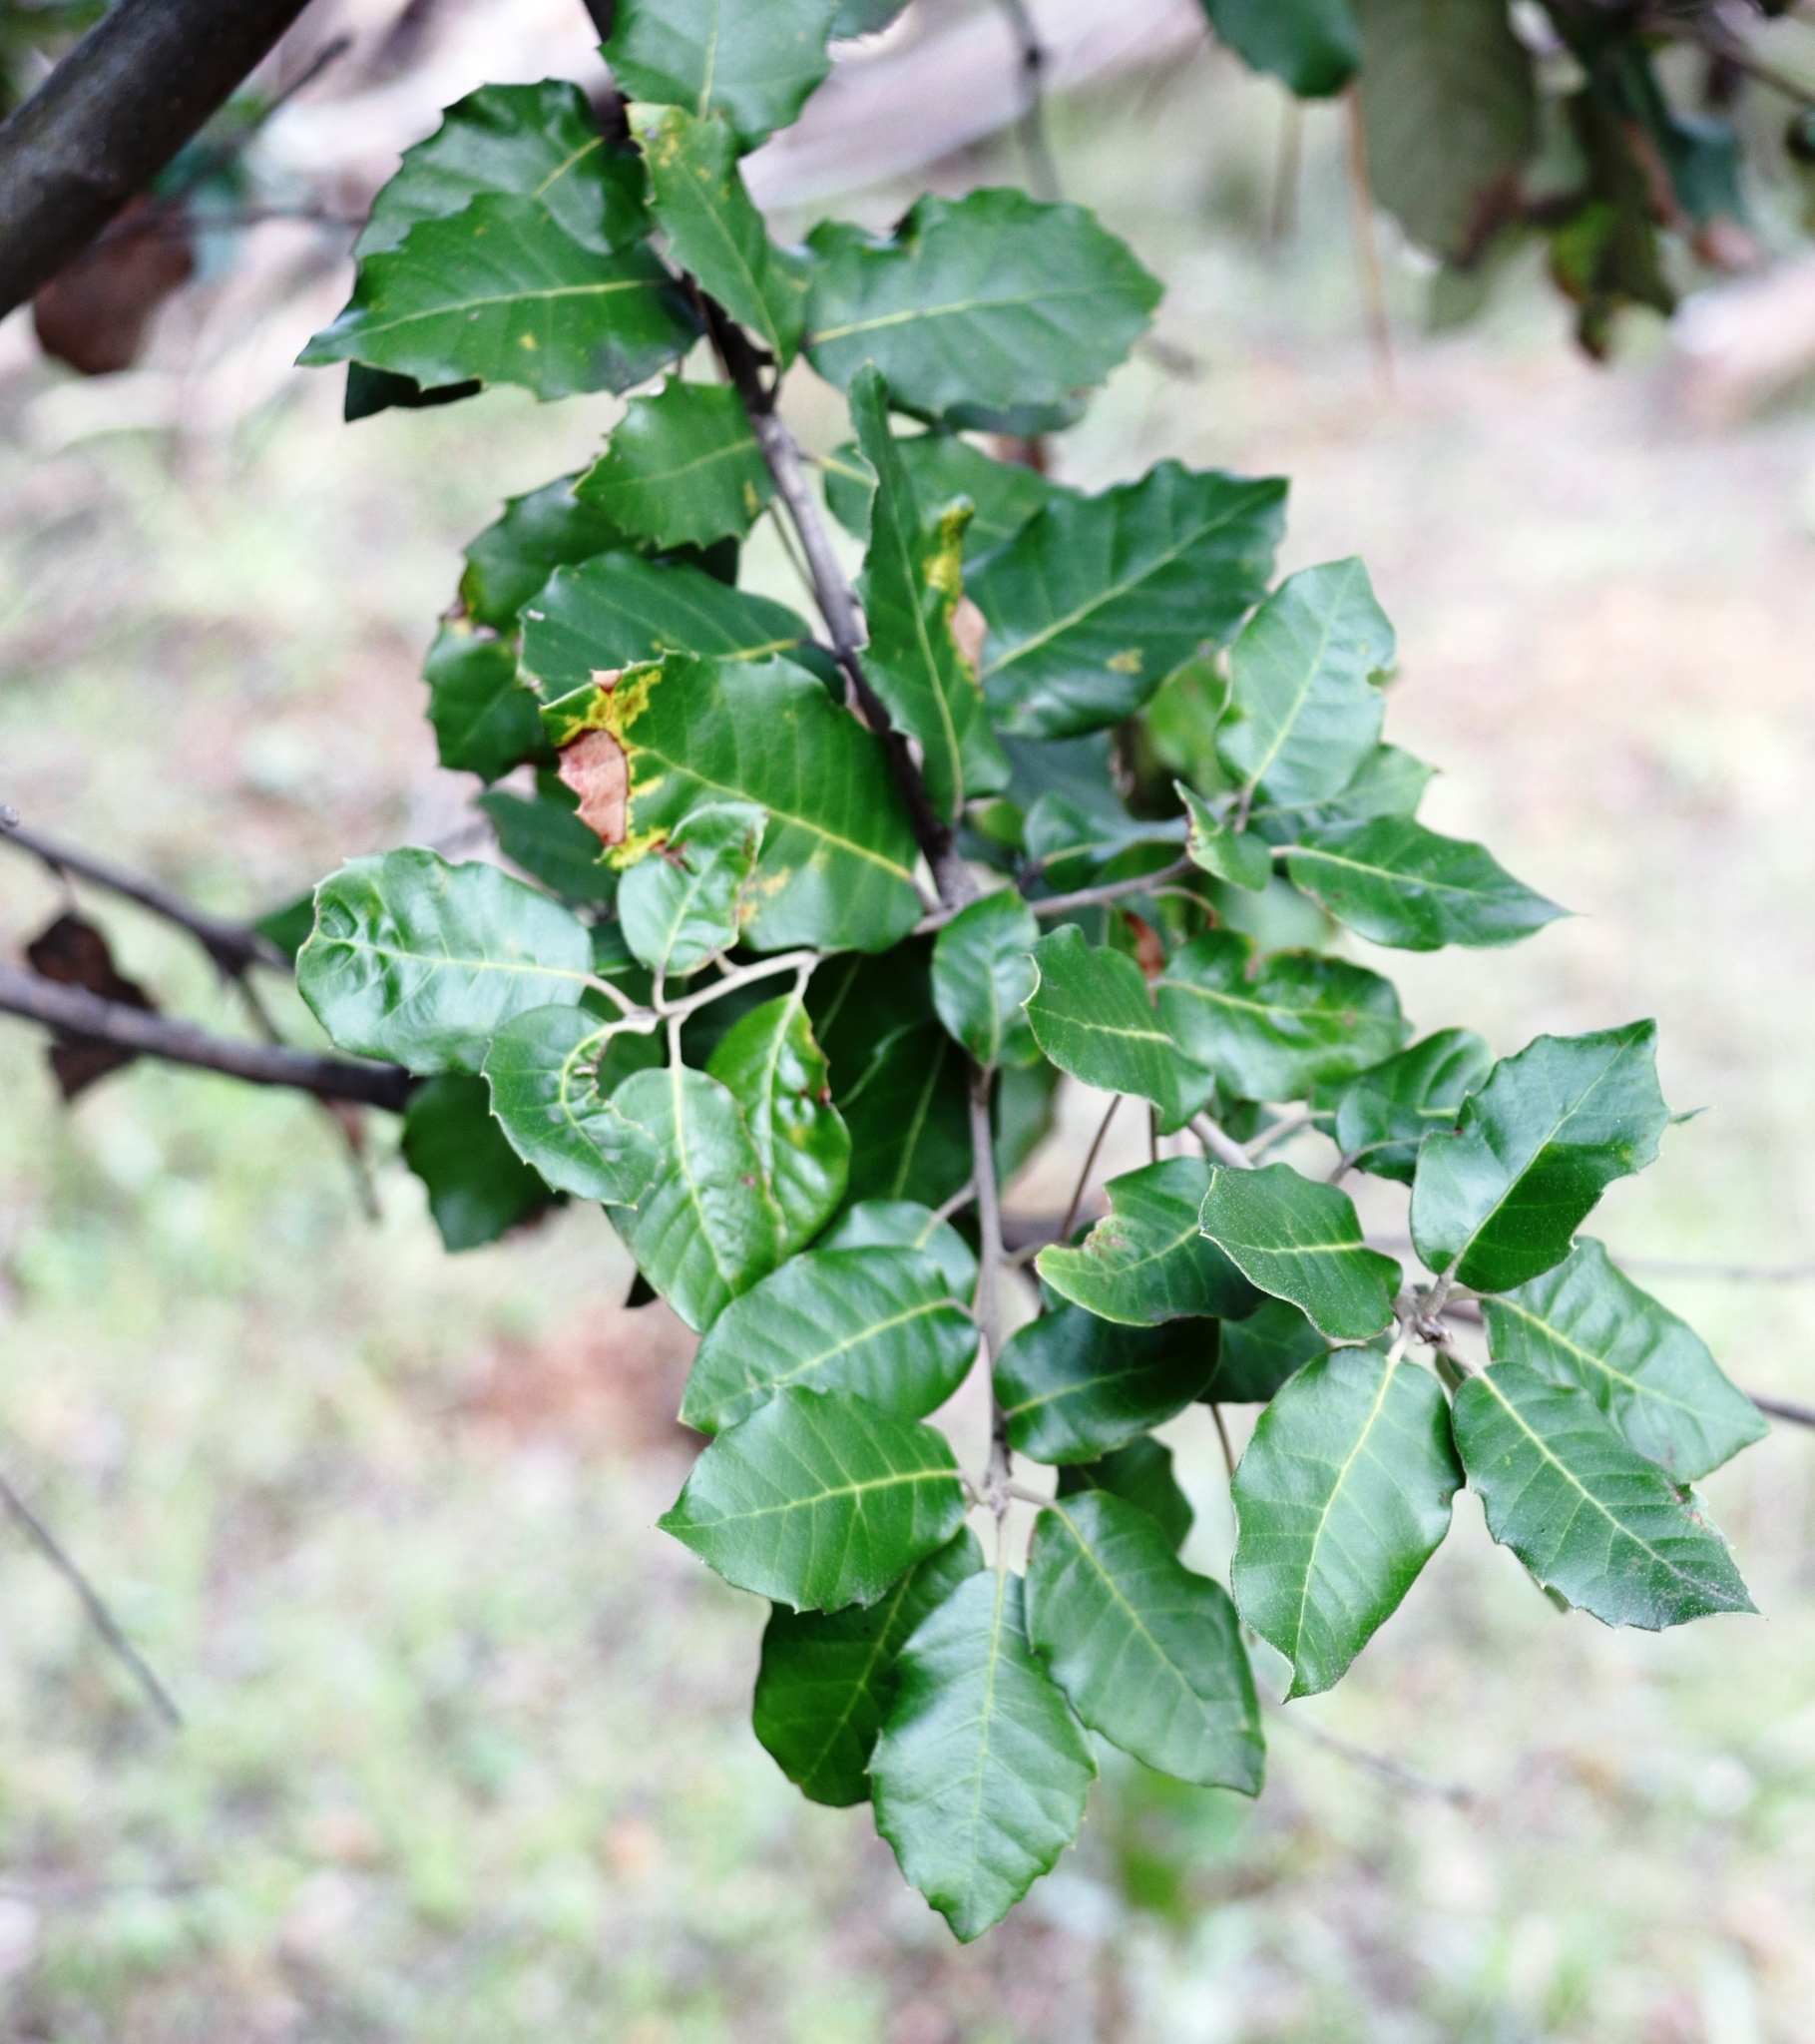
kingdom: Plantae
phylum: Tracheophyta
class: Magnoliopsida
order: Fagales
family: Fagaceae
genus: Quercus
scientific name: Quercus ilex
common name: Evergreen oak
